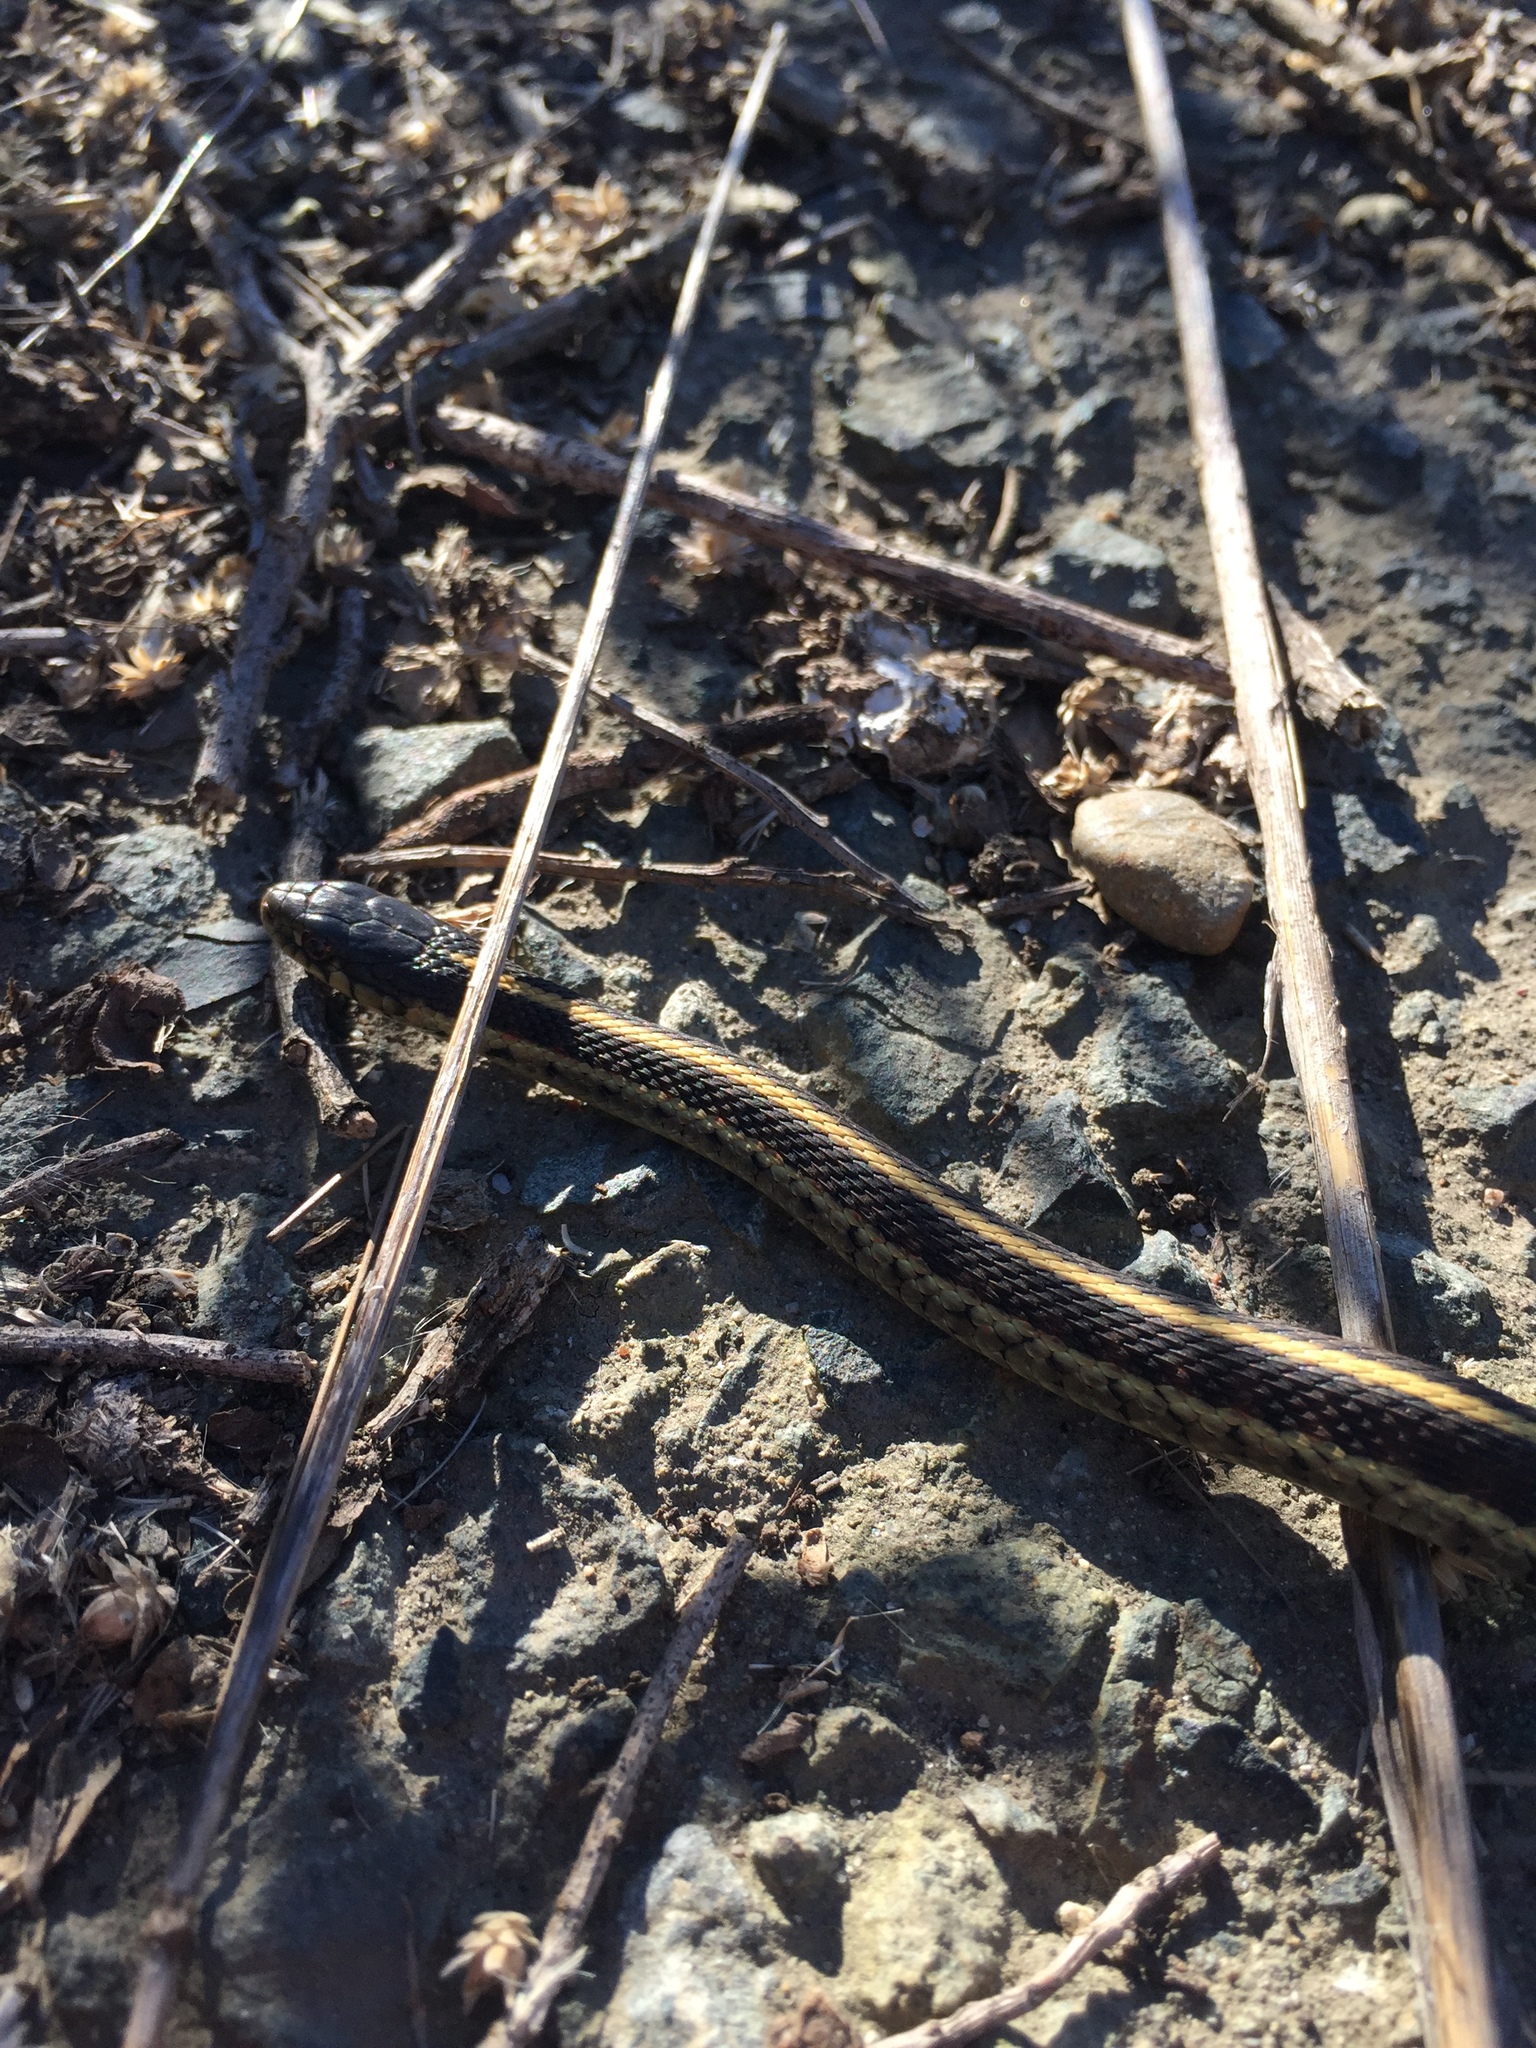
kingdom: Animalia
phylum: Chordata
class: Squamata
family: Colubridae
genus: Thamnophis
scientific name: Thamnophis elegans
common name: Western terrestrial garter snake
